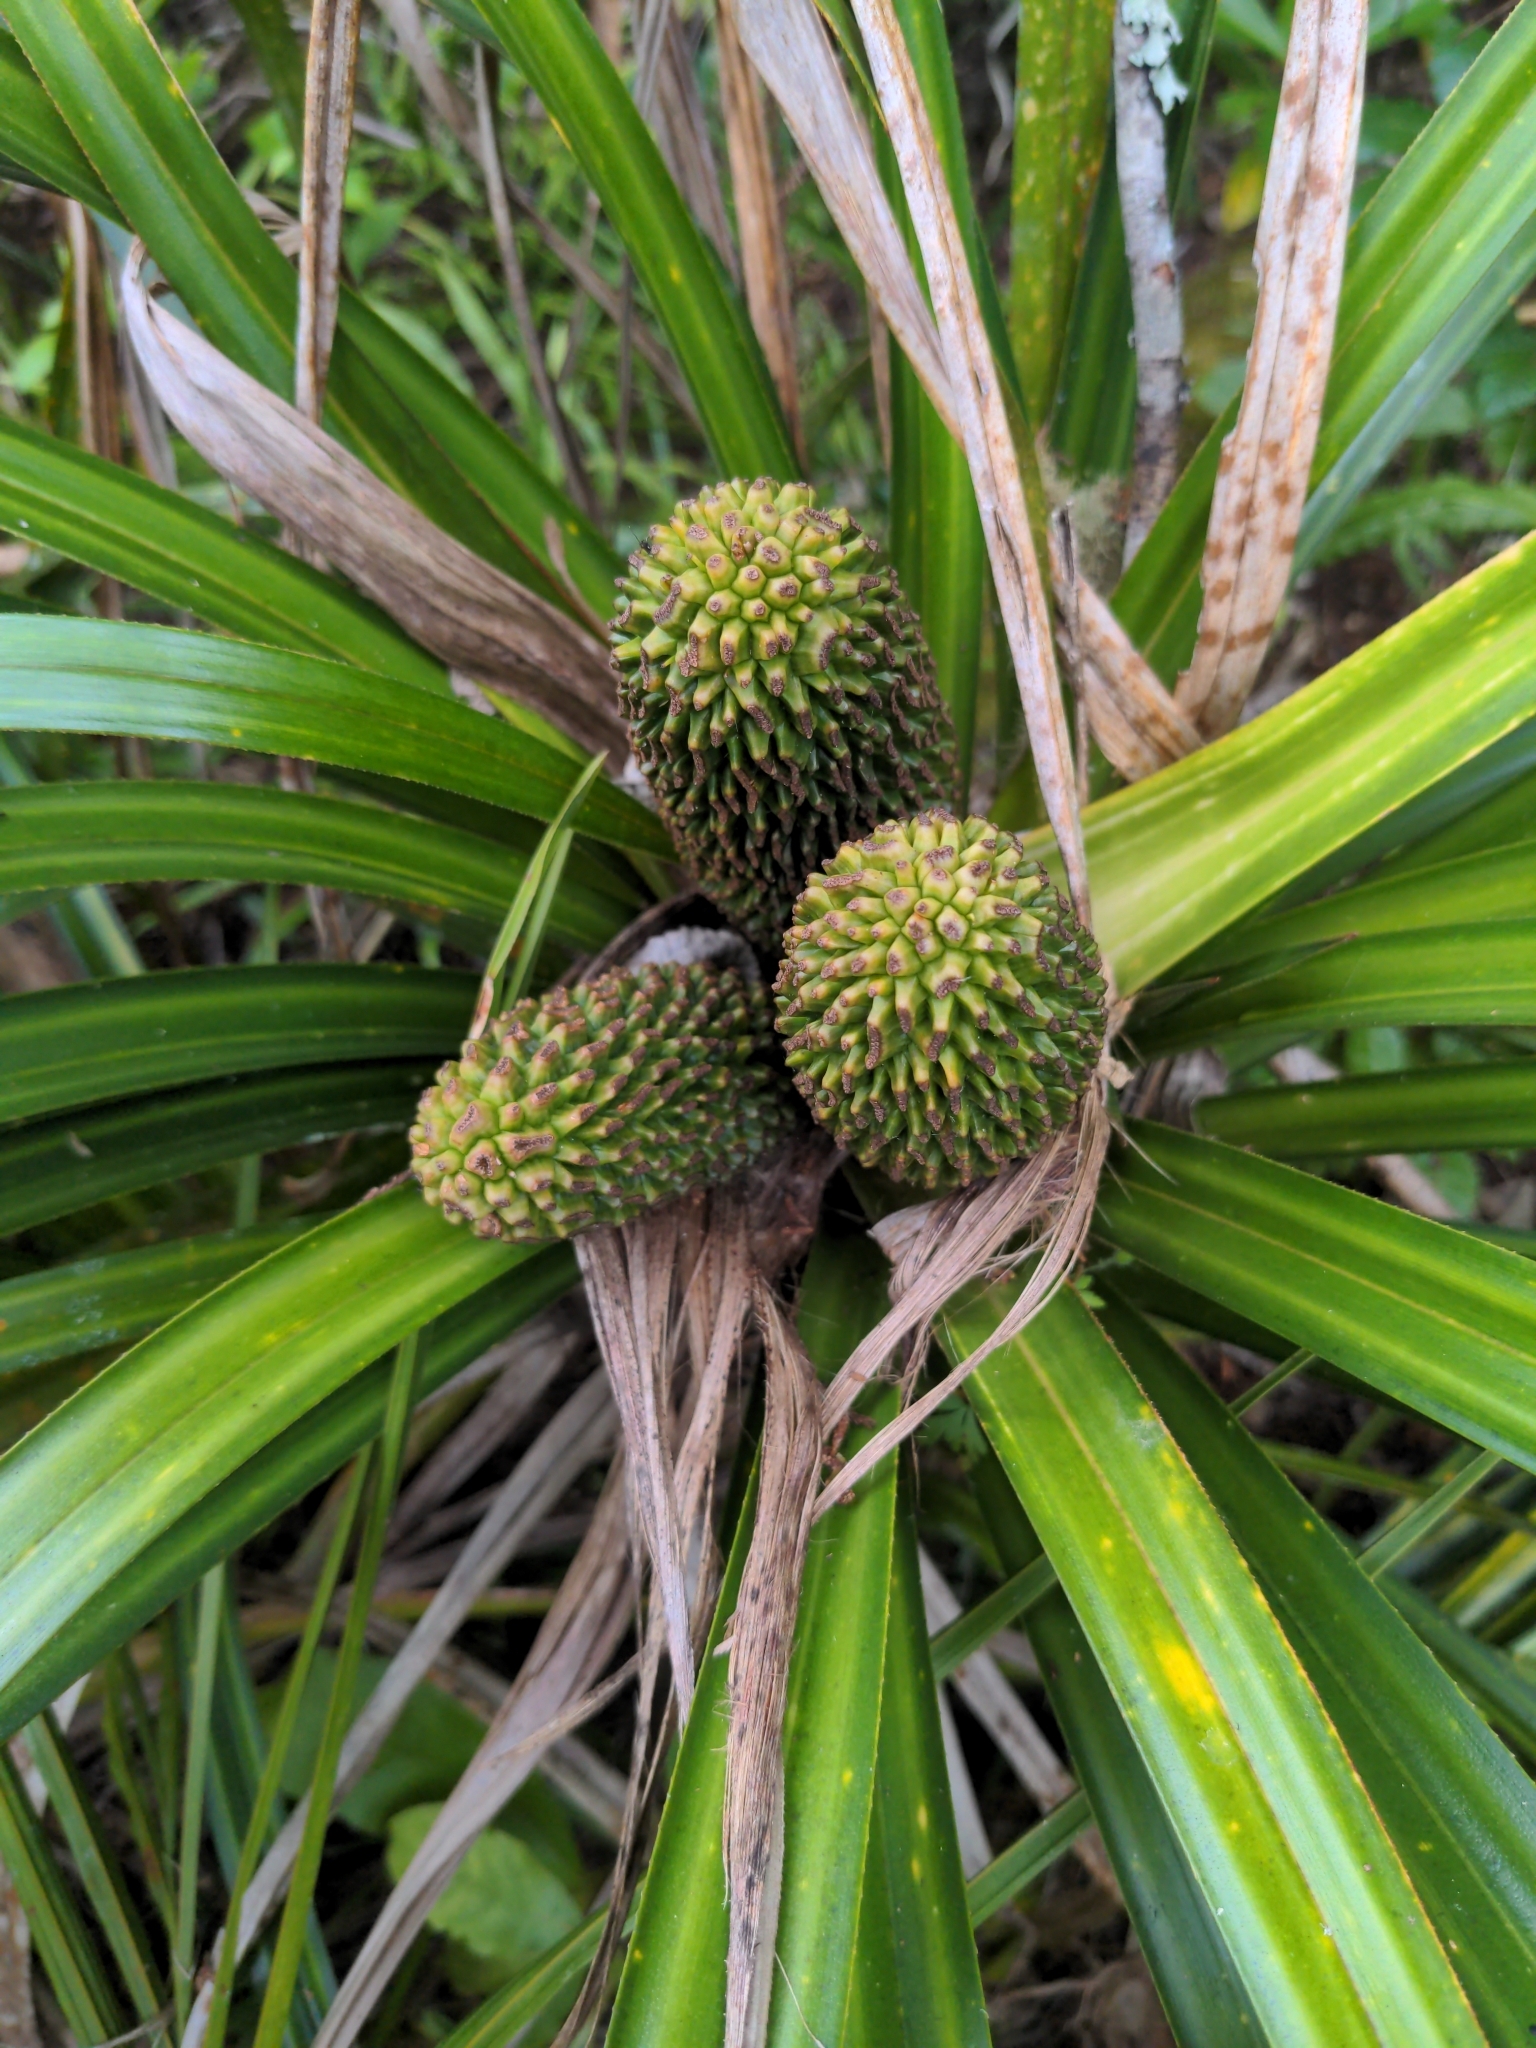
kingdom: Plantae
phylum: Tracheophyta
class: Liliopsida
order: Pandanales
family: Pandanaceae
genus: Freycinetia
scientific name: Freycinetia banksii
